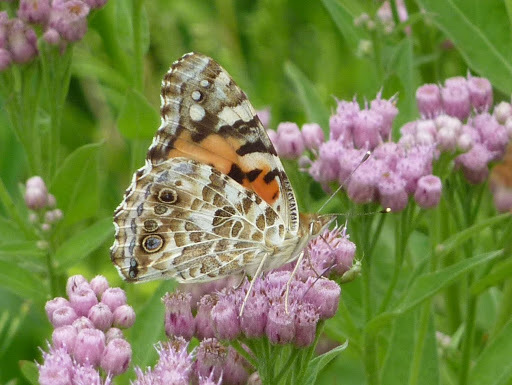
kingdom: Animalia
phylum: Arthropoda
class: Insecta
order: Lepidoptera
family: Nymphalidae
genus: Vanessa
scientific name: Vanessa cardui
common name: Painted lady
